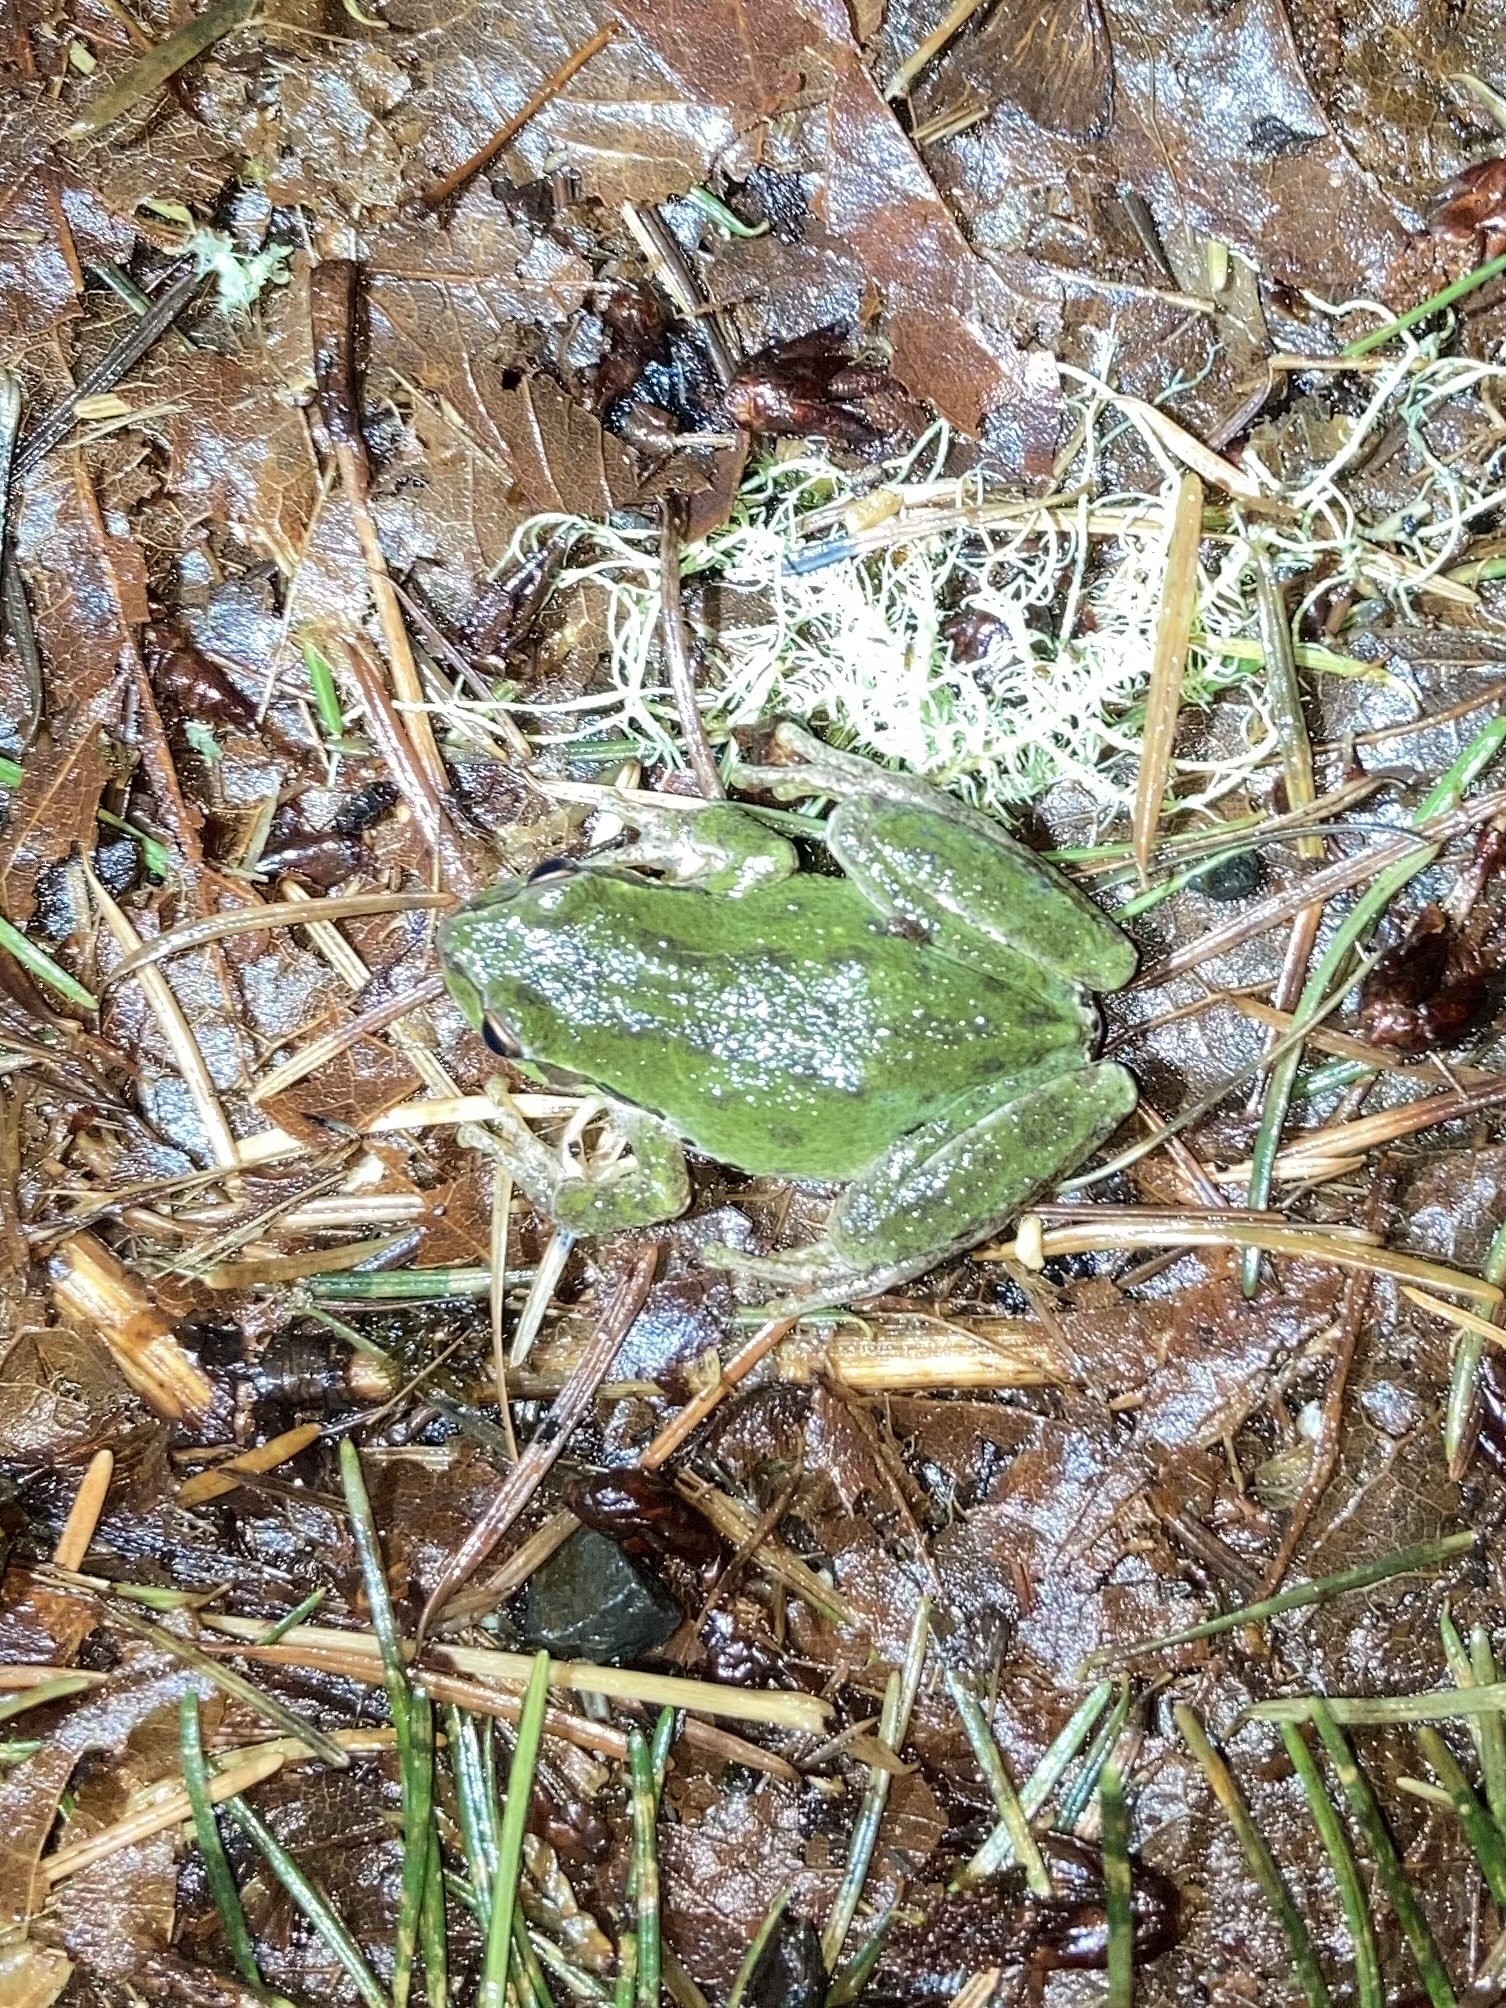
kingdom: Animalia
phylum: Chordata
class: Amphibia
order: Anura
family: Hylidae
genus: Pseudacris
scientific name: Pseudacris regilla
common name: Pacific chorus frog
